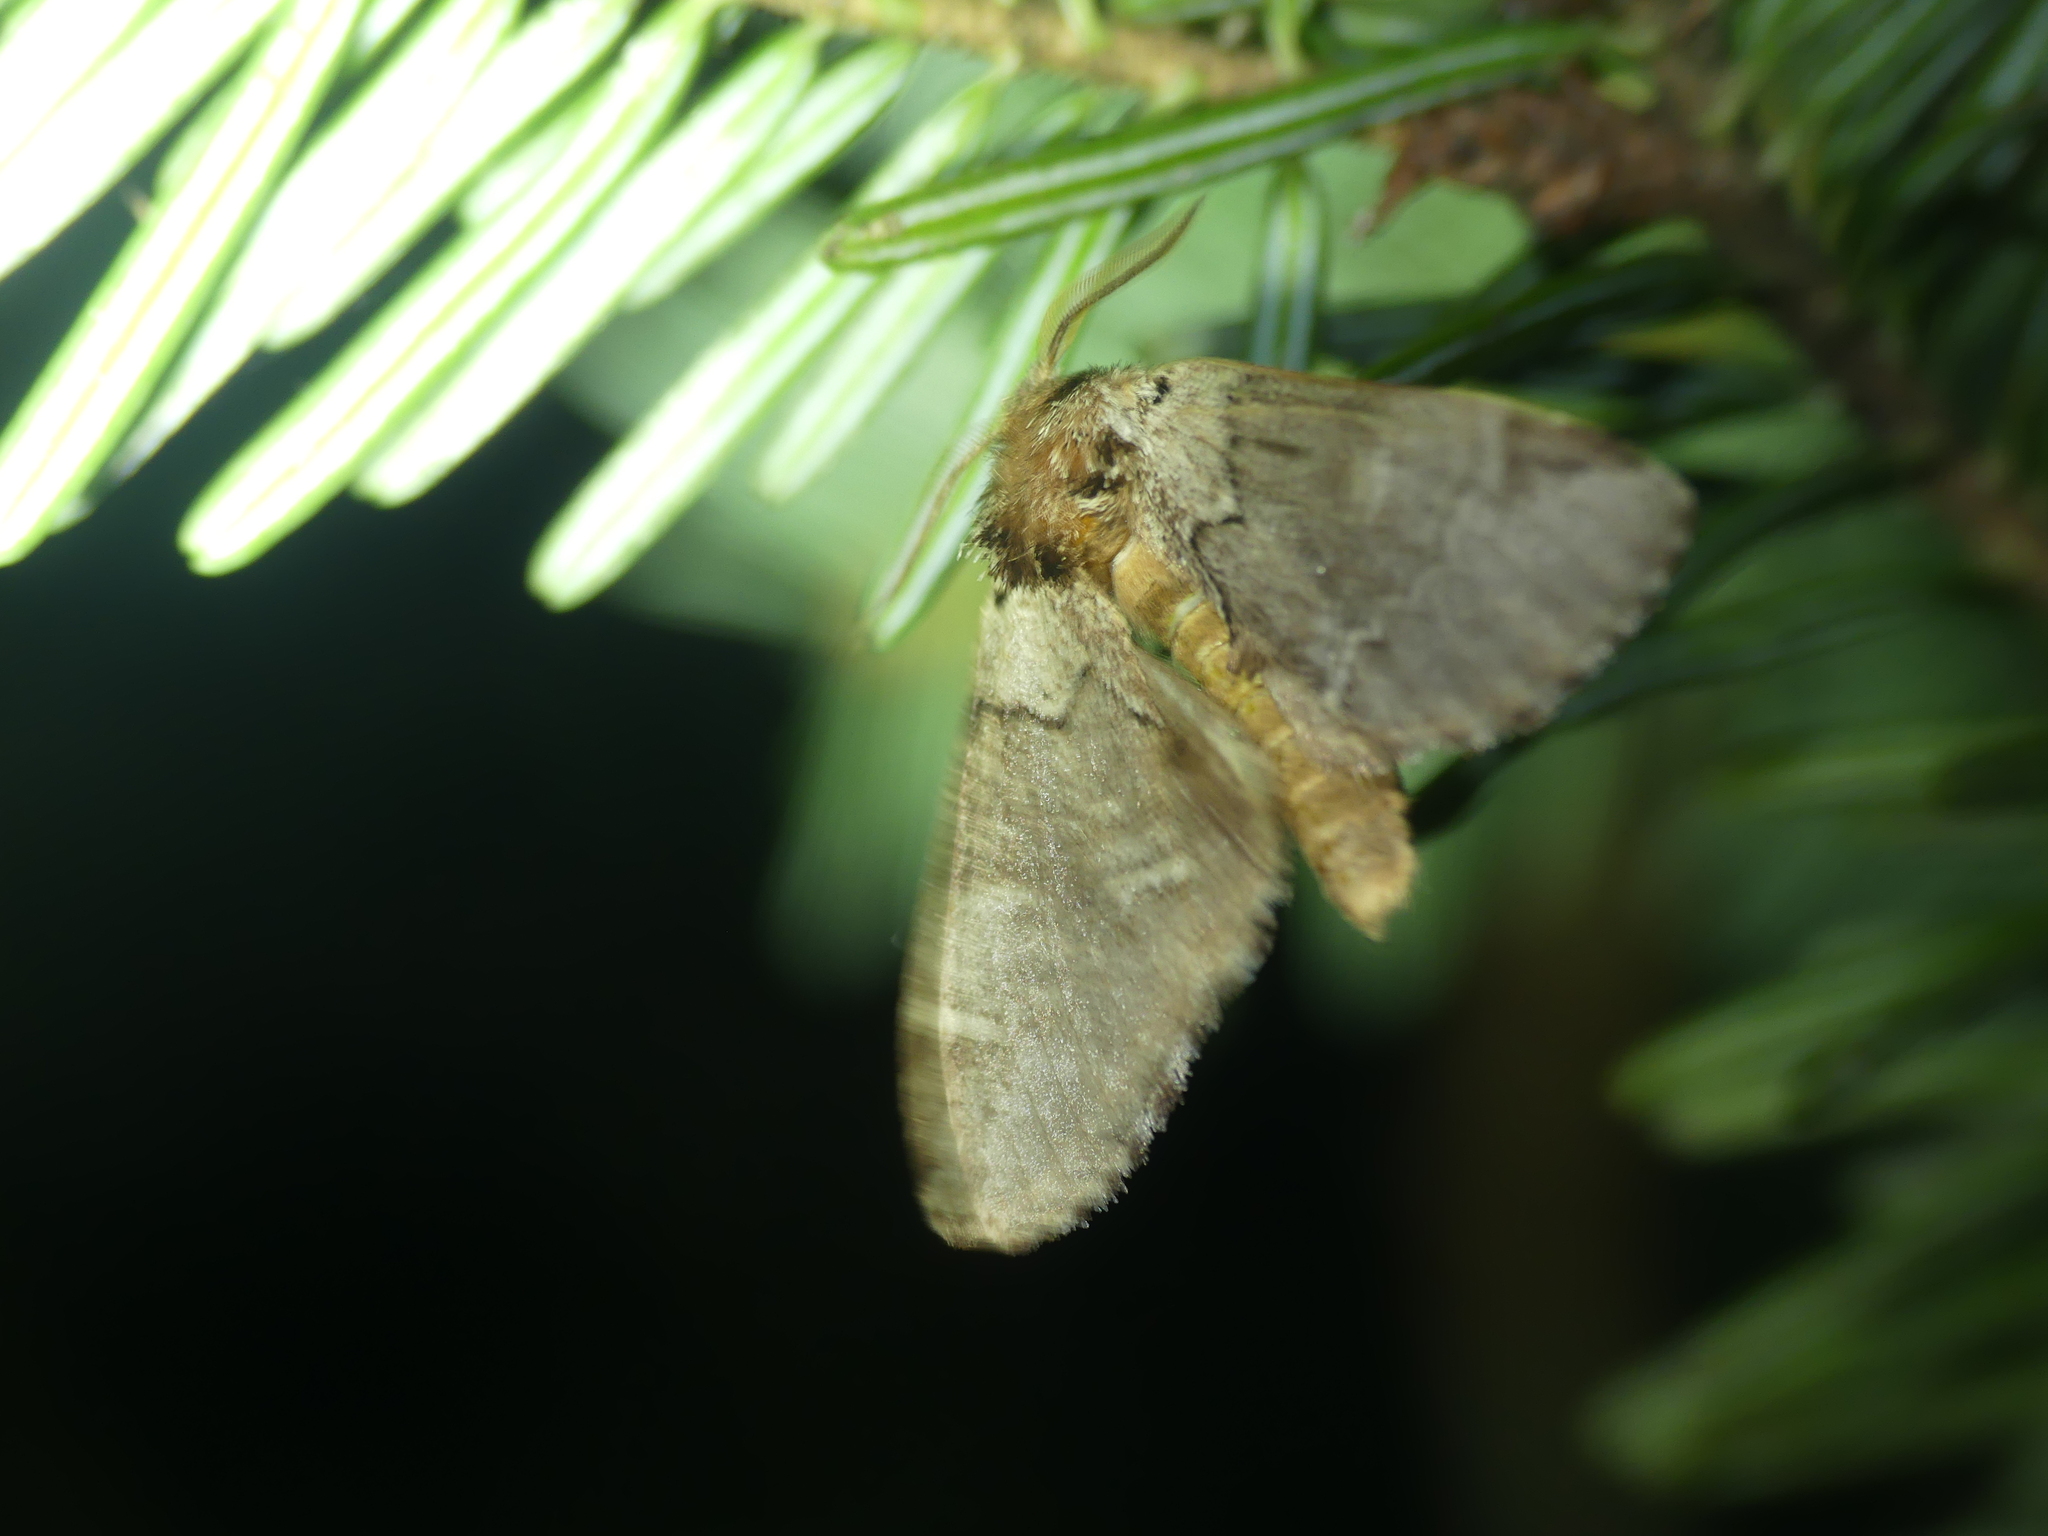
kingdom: Animalia
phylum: Arthropoda
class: Insecta
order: Lepidoptera
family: Notodontidae
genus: Drymonia
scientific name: Drymonia obliterata
